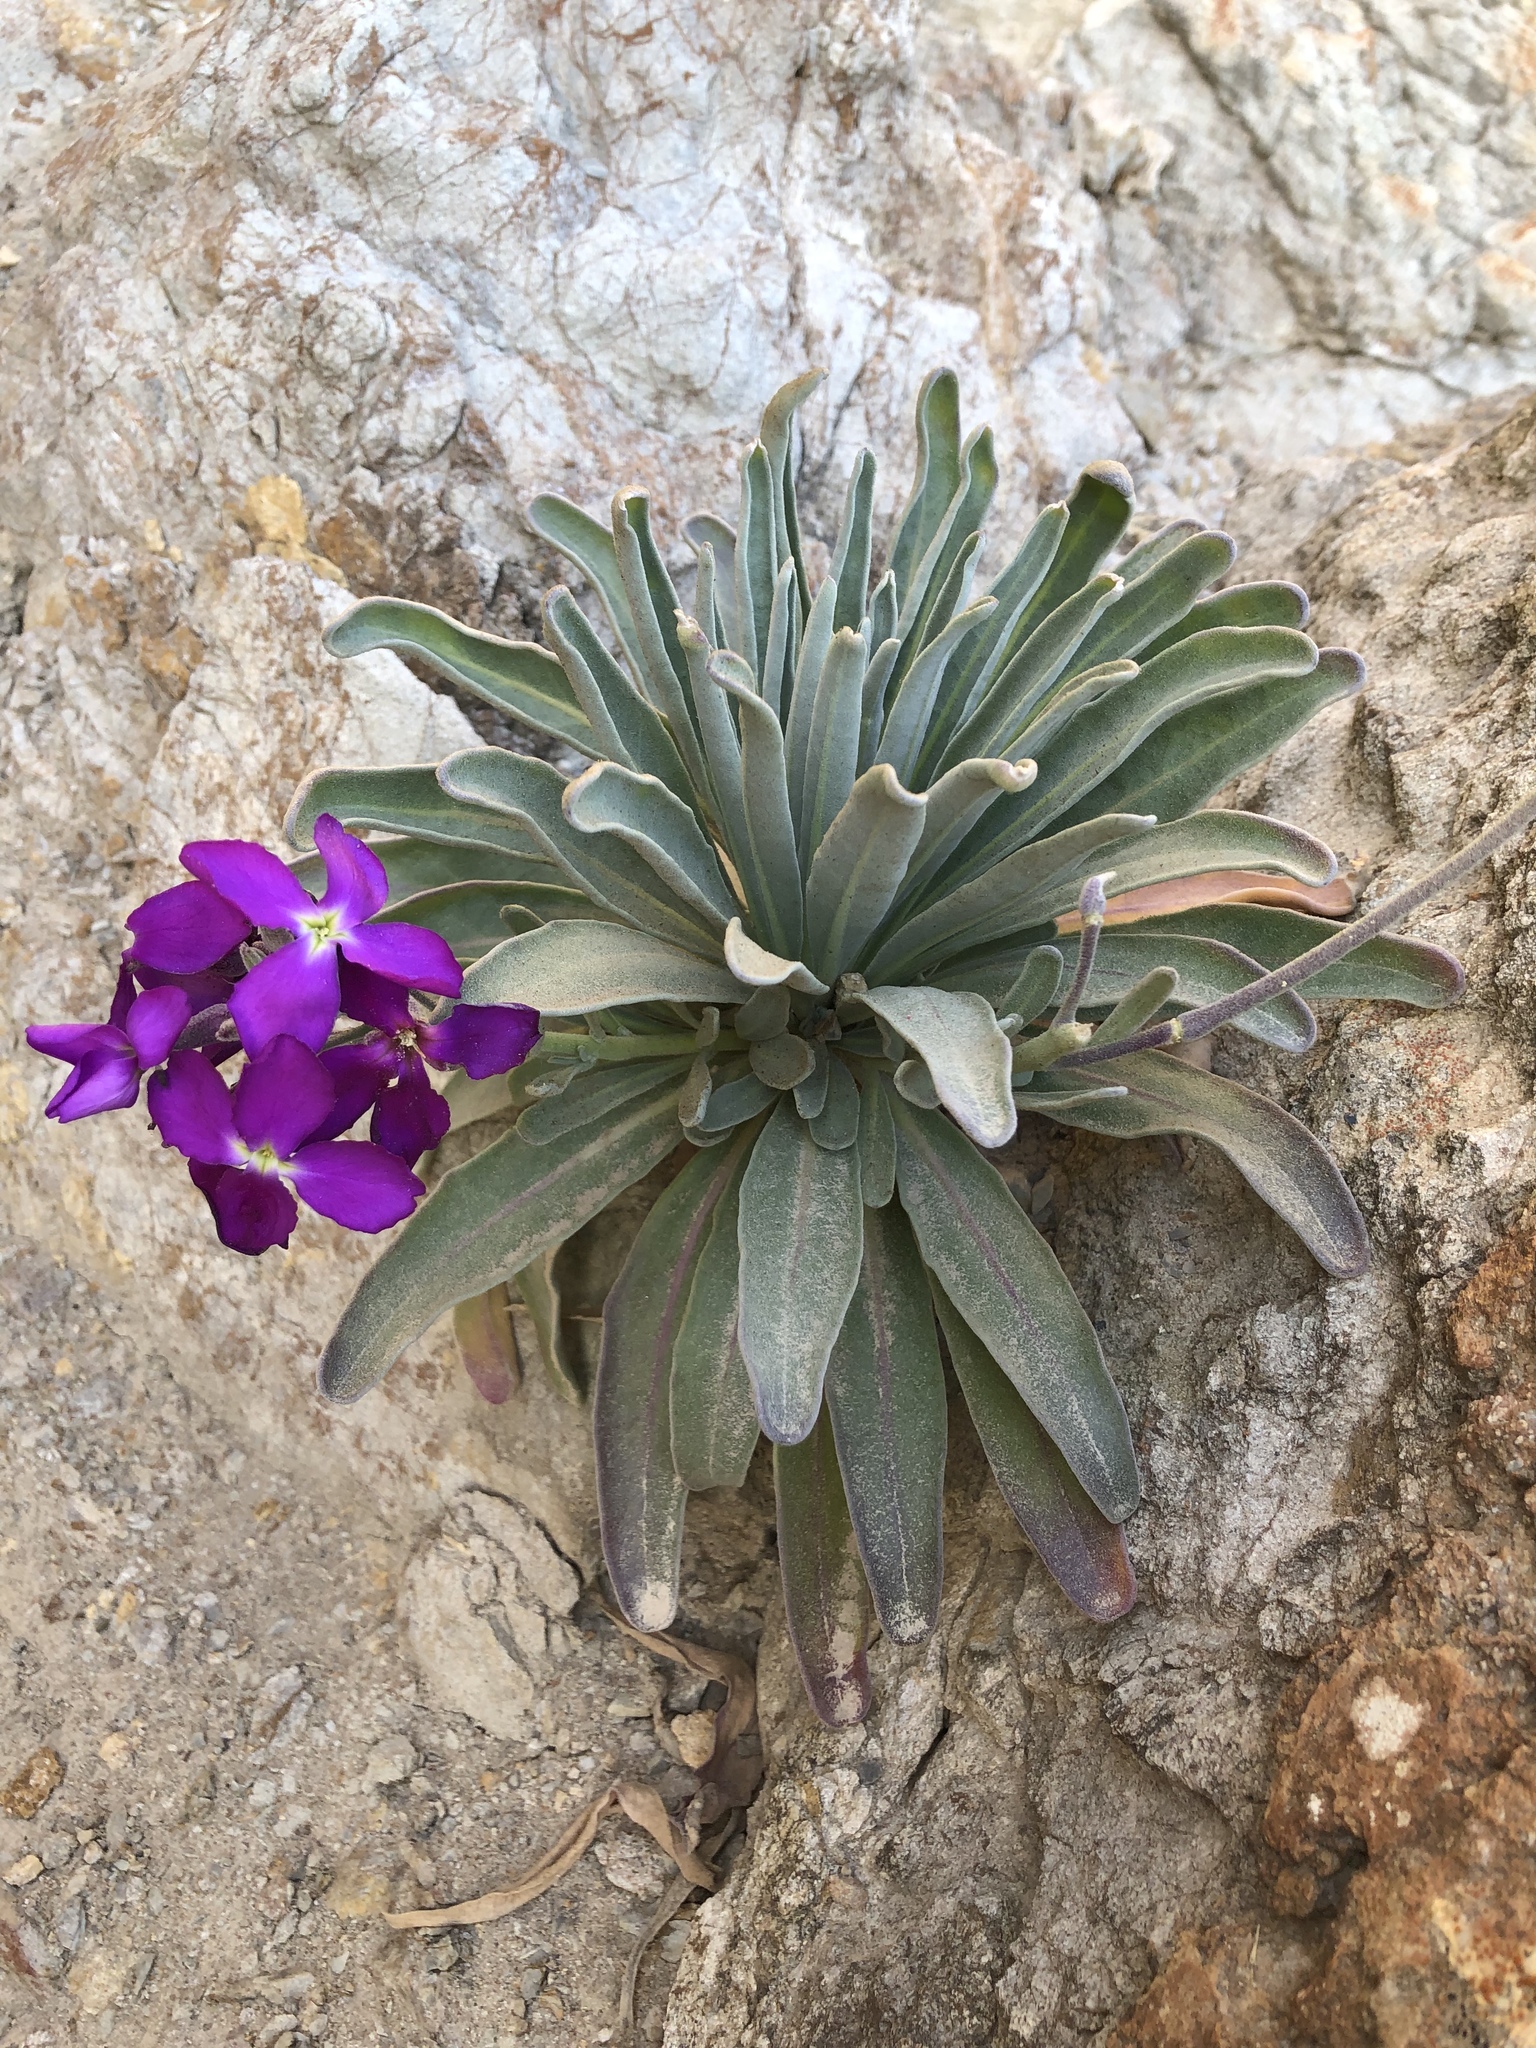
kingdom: Plantae
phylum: Tracheophyta
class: Magnoliopsida
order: Brassicales
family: Brassicaceae
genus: Matthiola
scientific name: Matthiola incana
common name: Hoary stock
